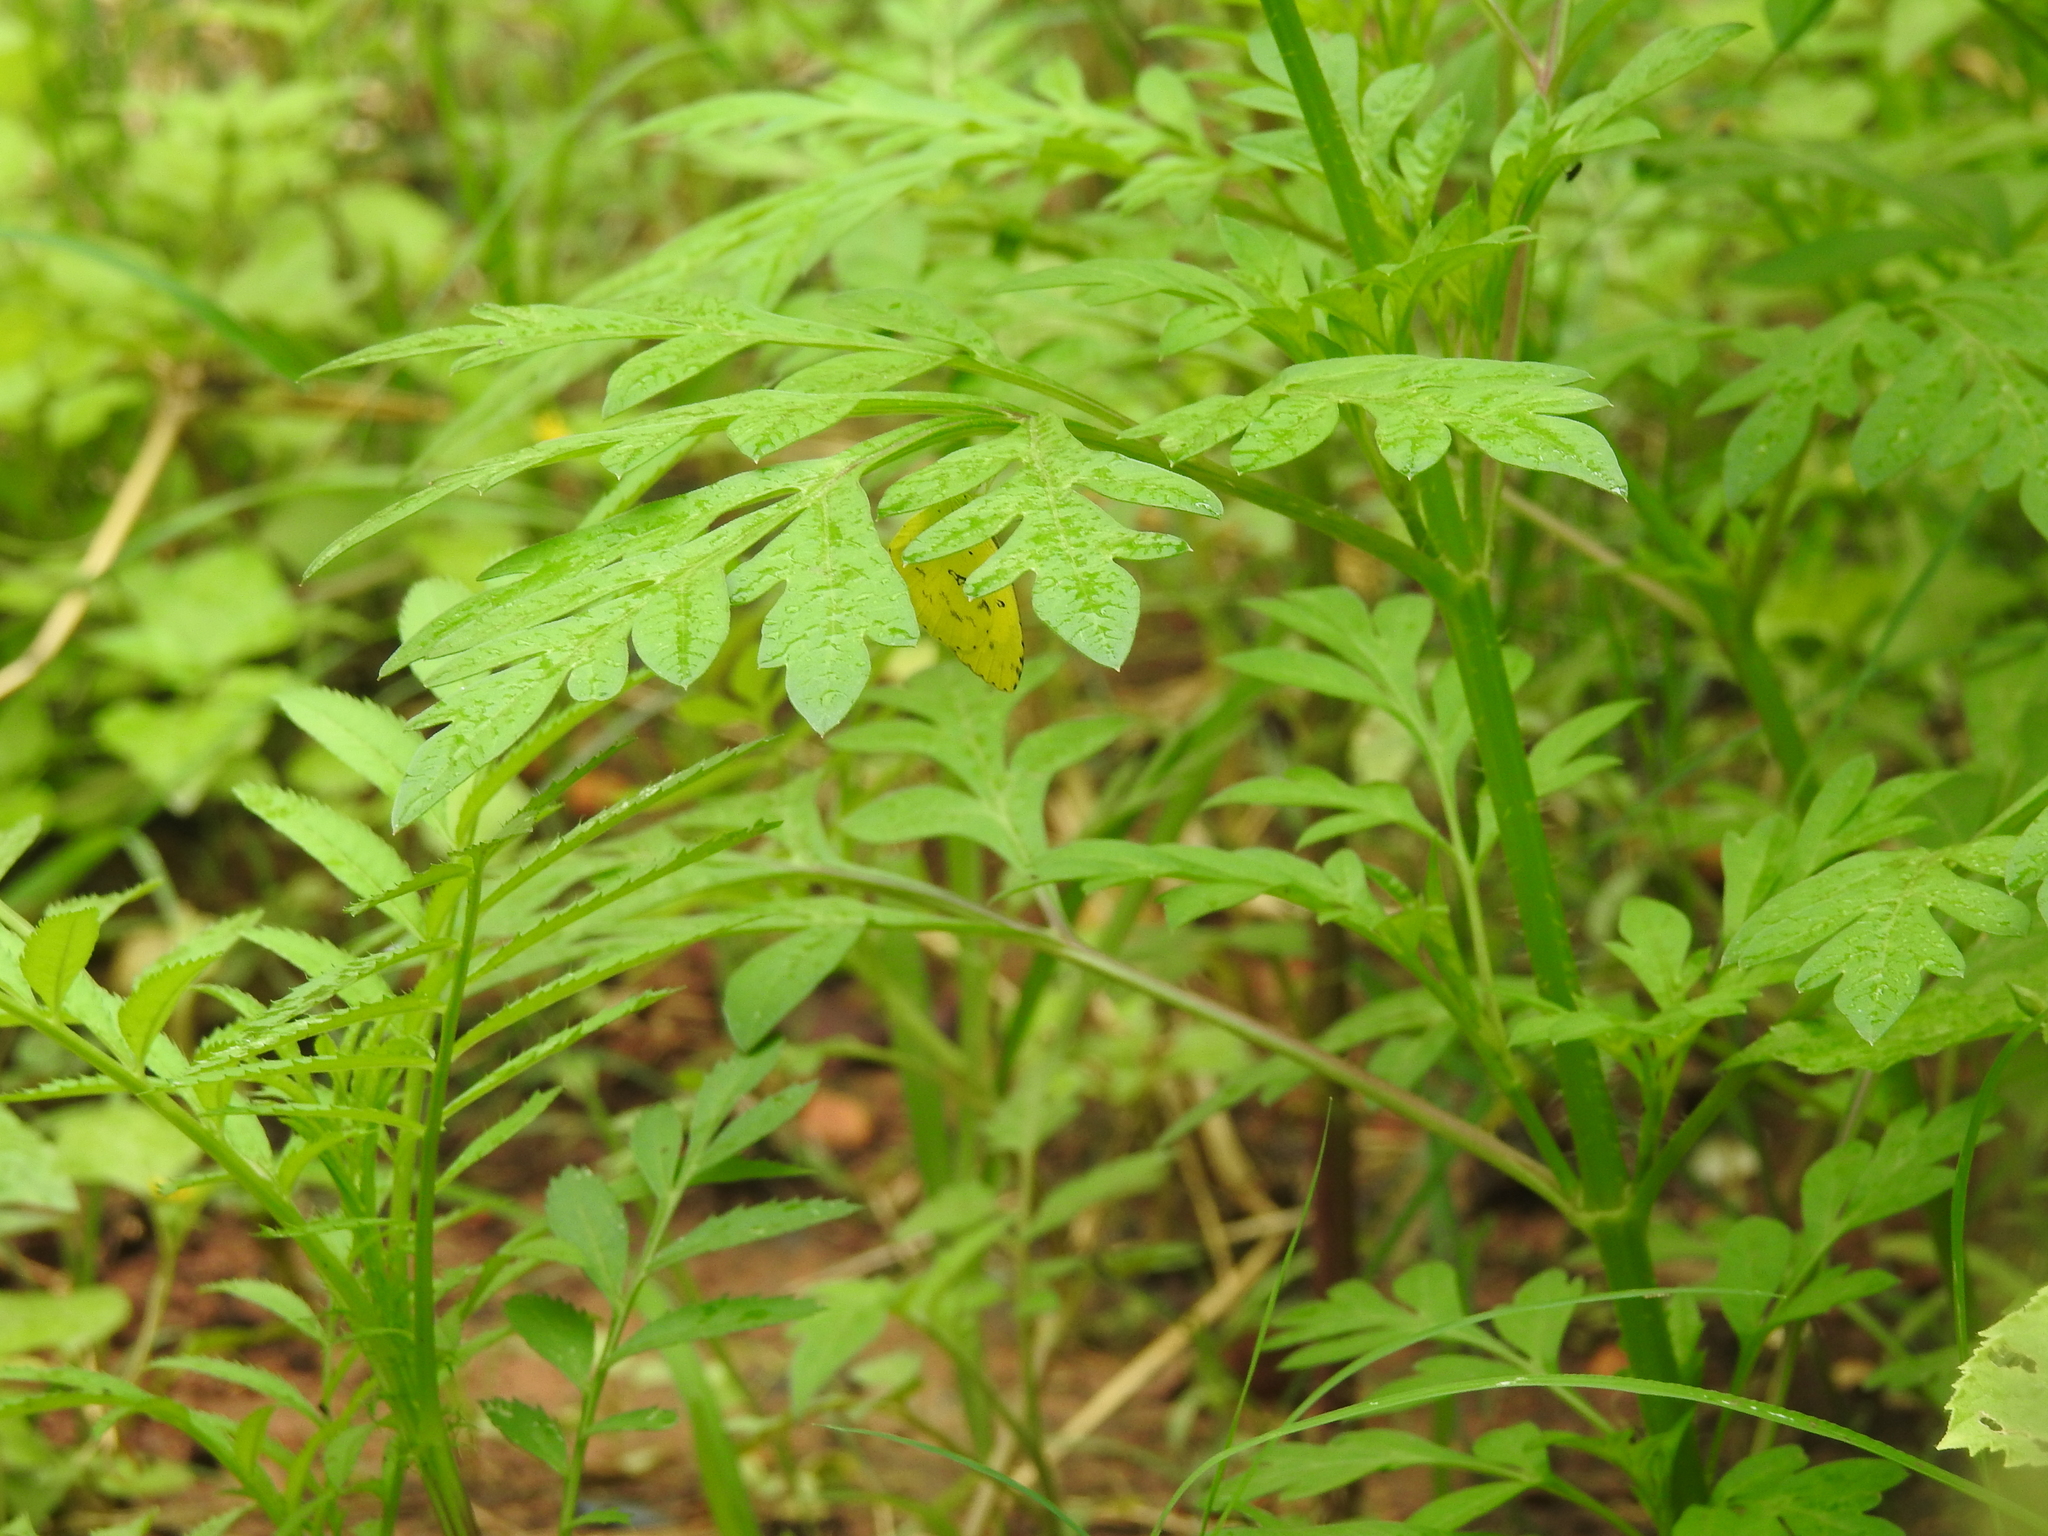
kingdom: Animalia
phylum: Arthropoda
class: Insecta
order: Lepidoptera
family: Pieridae
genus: Eurema
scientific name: Eurema hecabe
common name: Pale grass yellow
